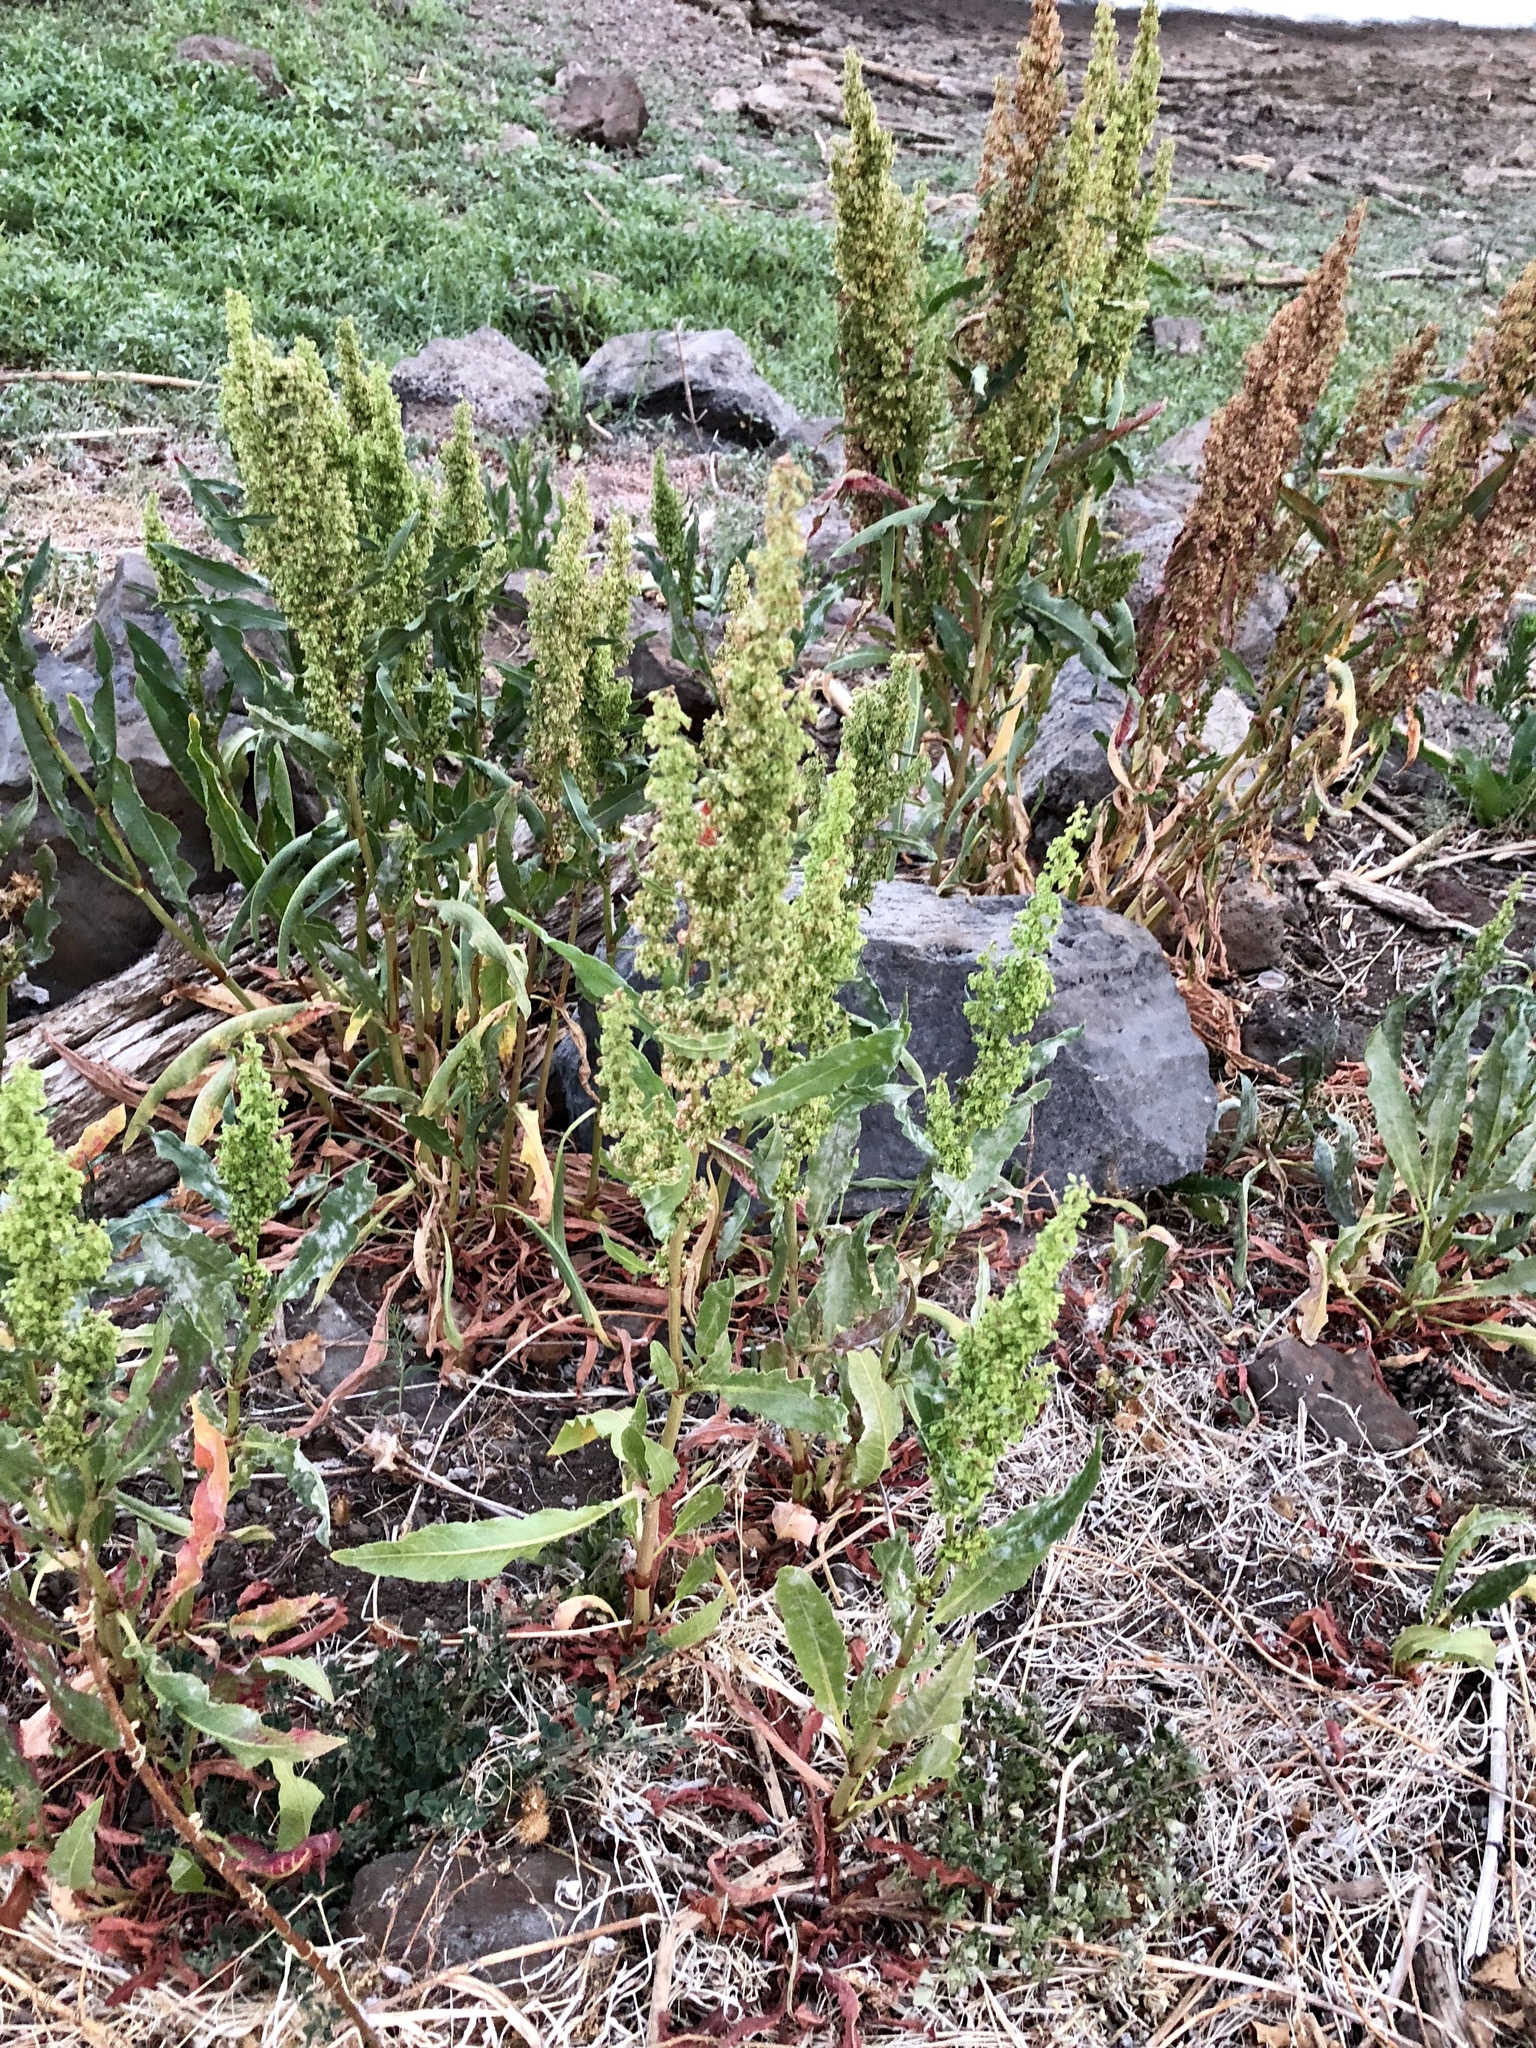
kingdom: Plantae
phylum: Tracheophyta
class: Magnoliopsida
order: Caryophyllales
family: Polygonaceae
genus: Rumex
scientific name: Rumex crispus
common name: Curled dock
